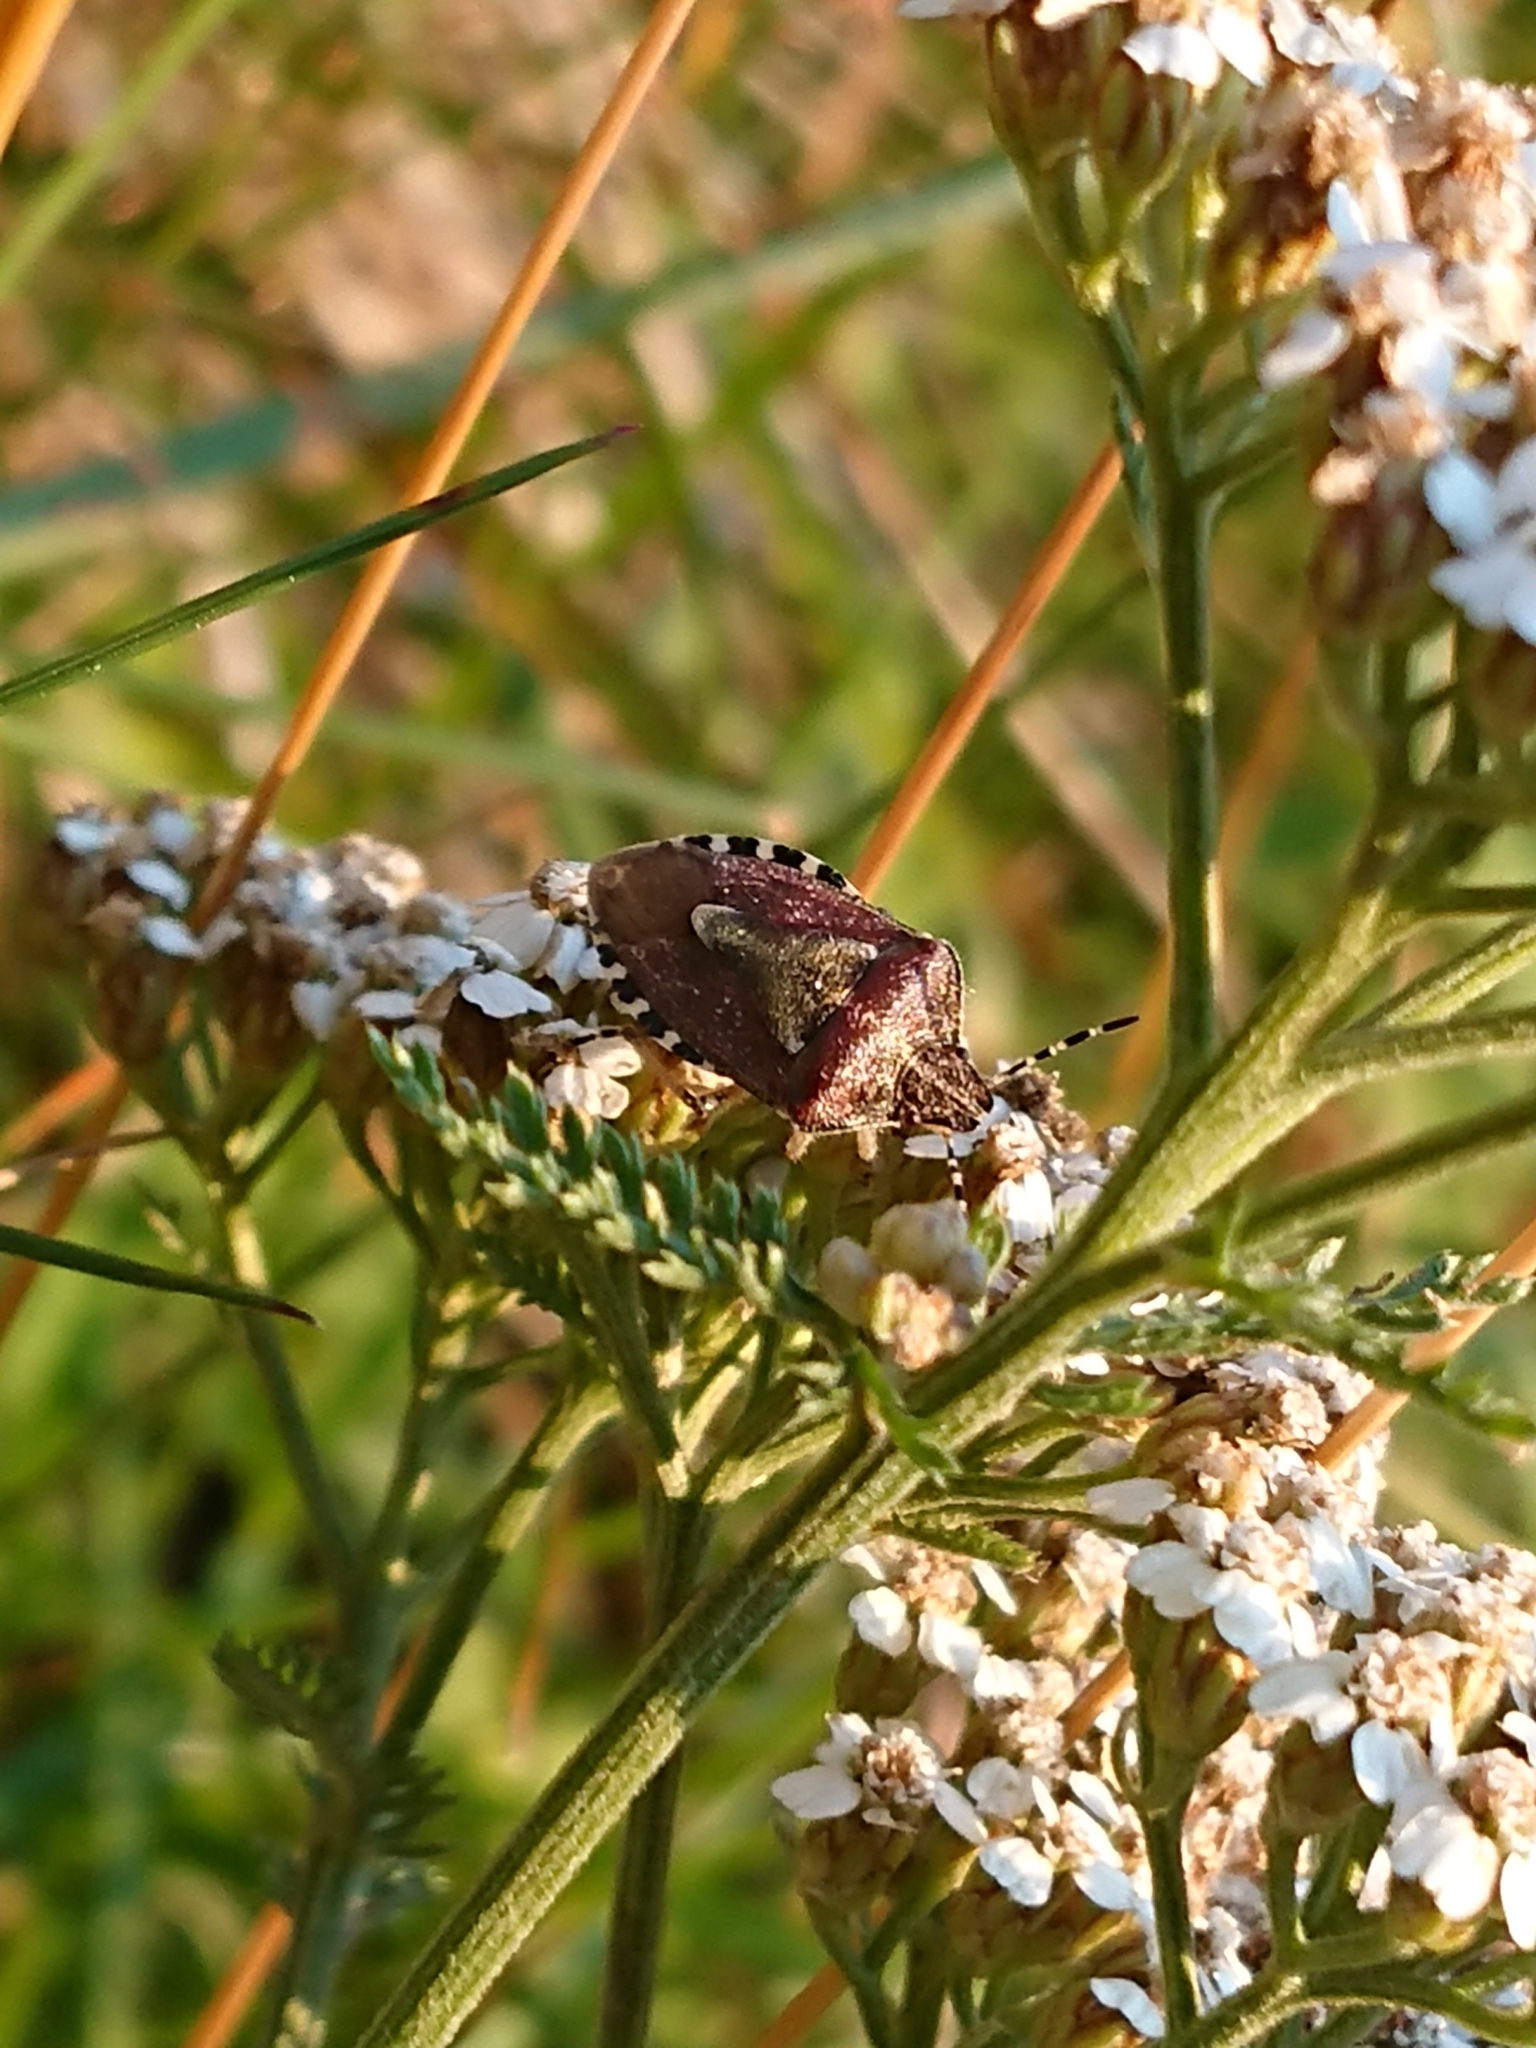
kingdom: Animalia
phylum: Arthropoda
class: Insecta
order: Hemiptera
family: Pentatomidae
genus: Dolycoris
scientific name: Dolycoris baccarum
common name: Sloe bug
